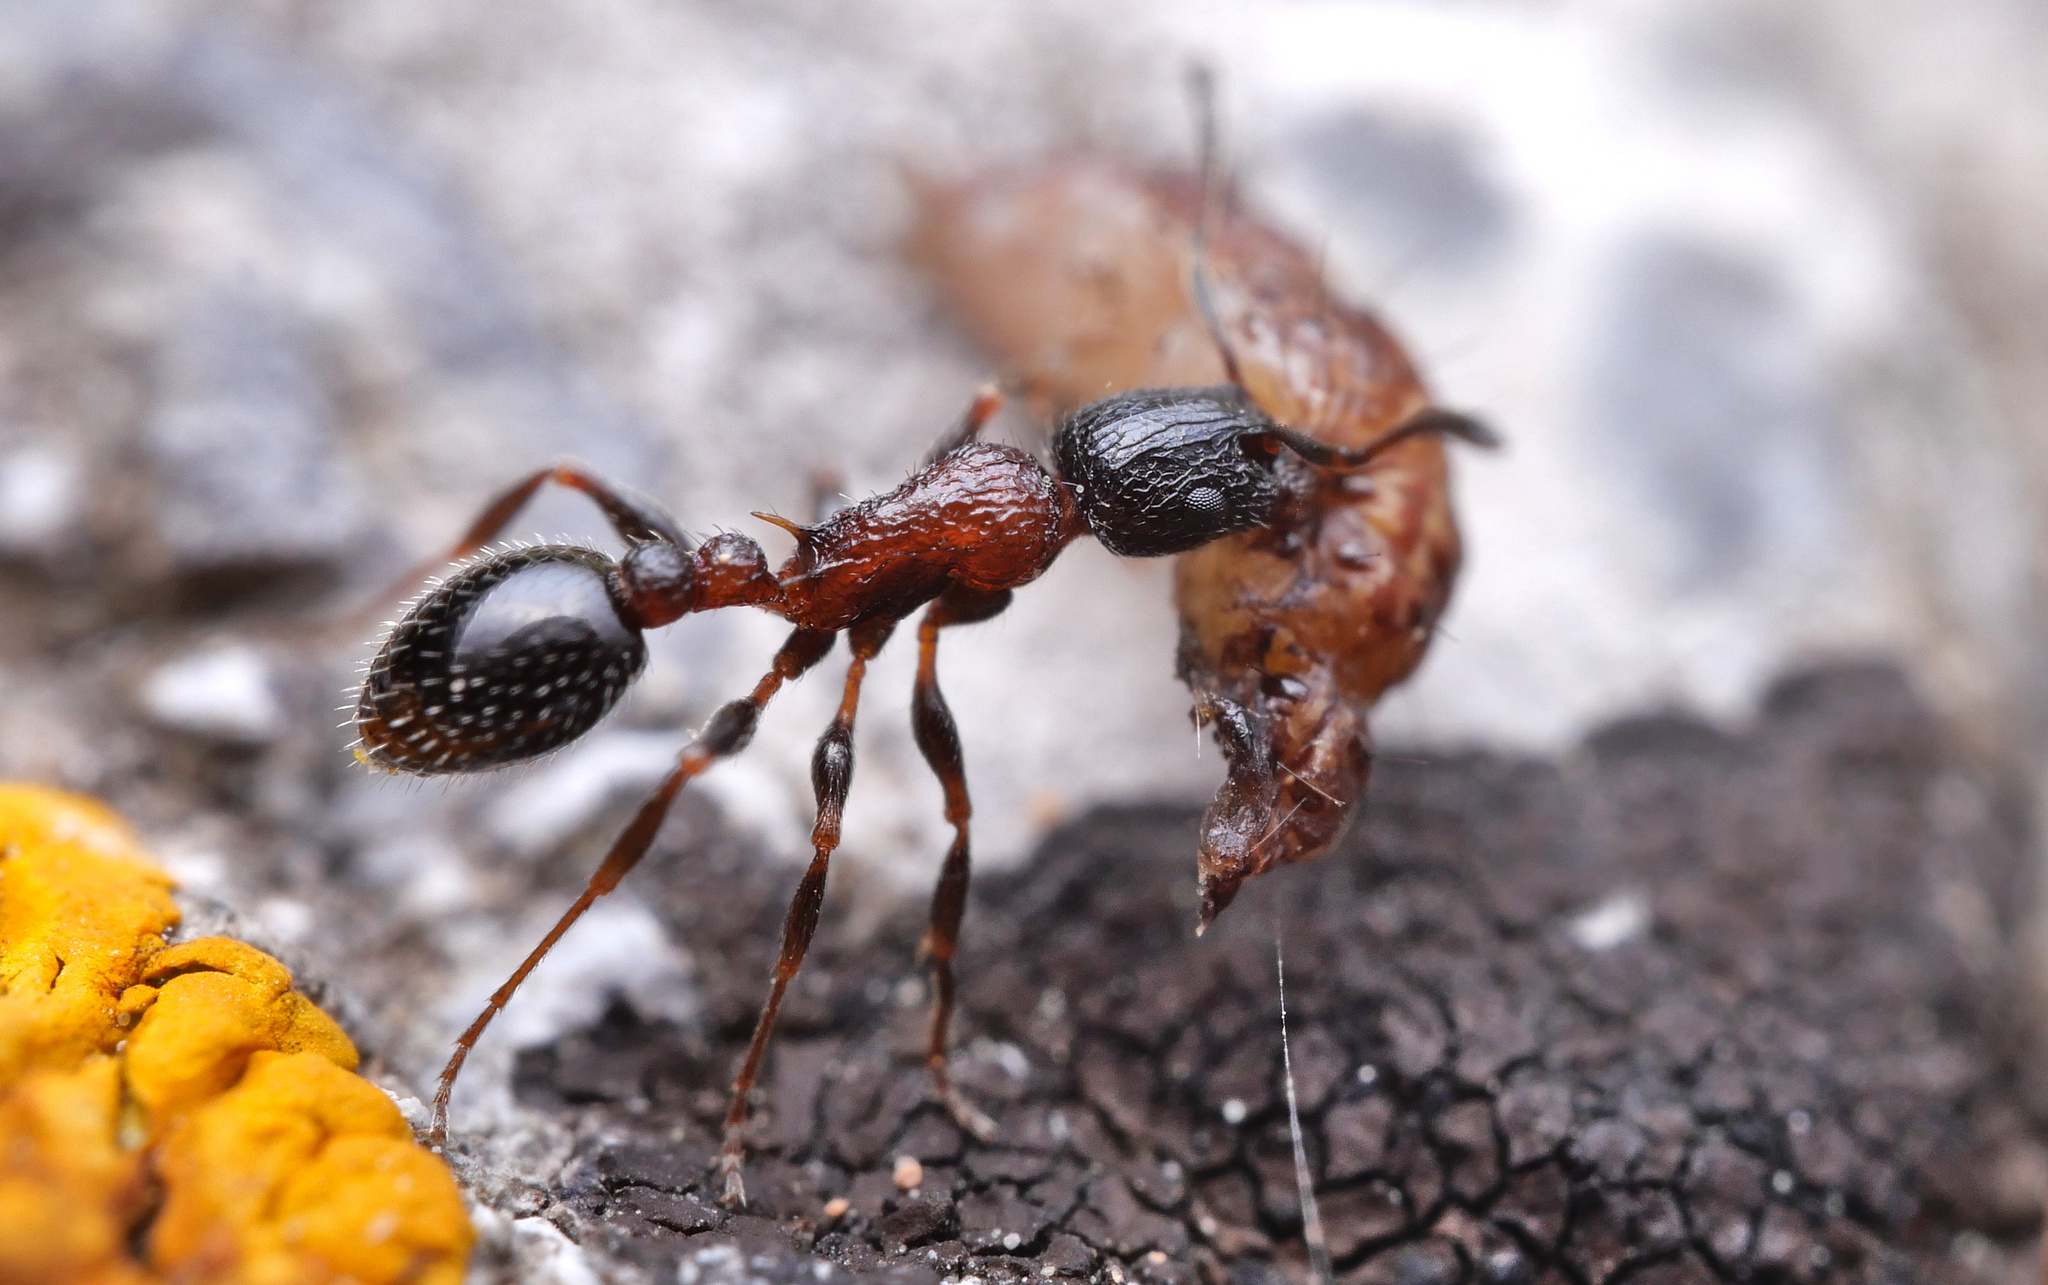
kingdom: Animalia
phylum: Arthropoda
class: Insecta
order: Hymenoptera
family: Formicidae
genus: Leptothorax
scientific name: Leptothorax semiruber
